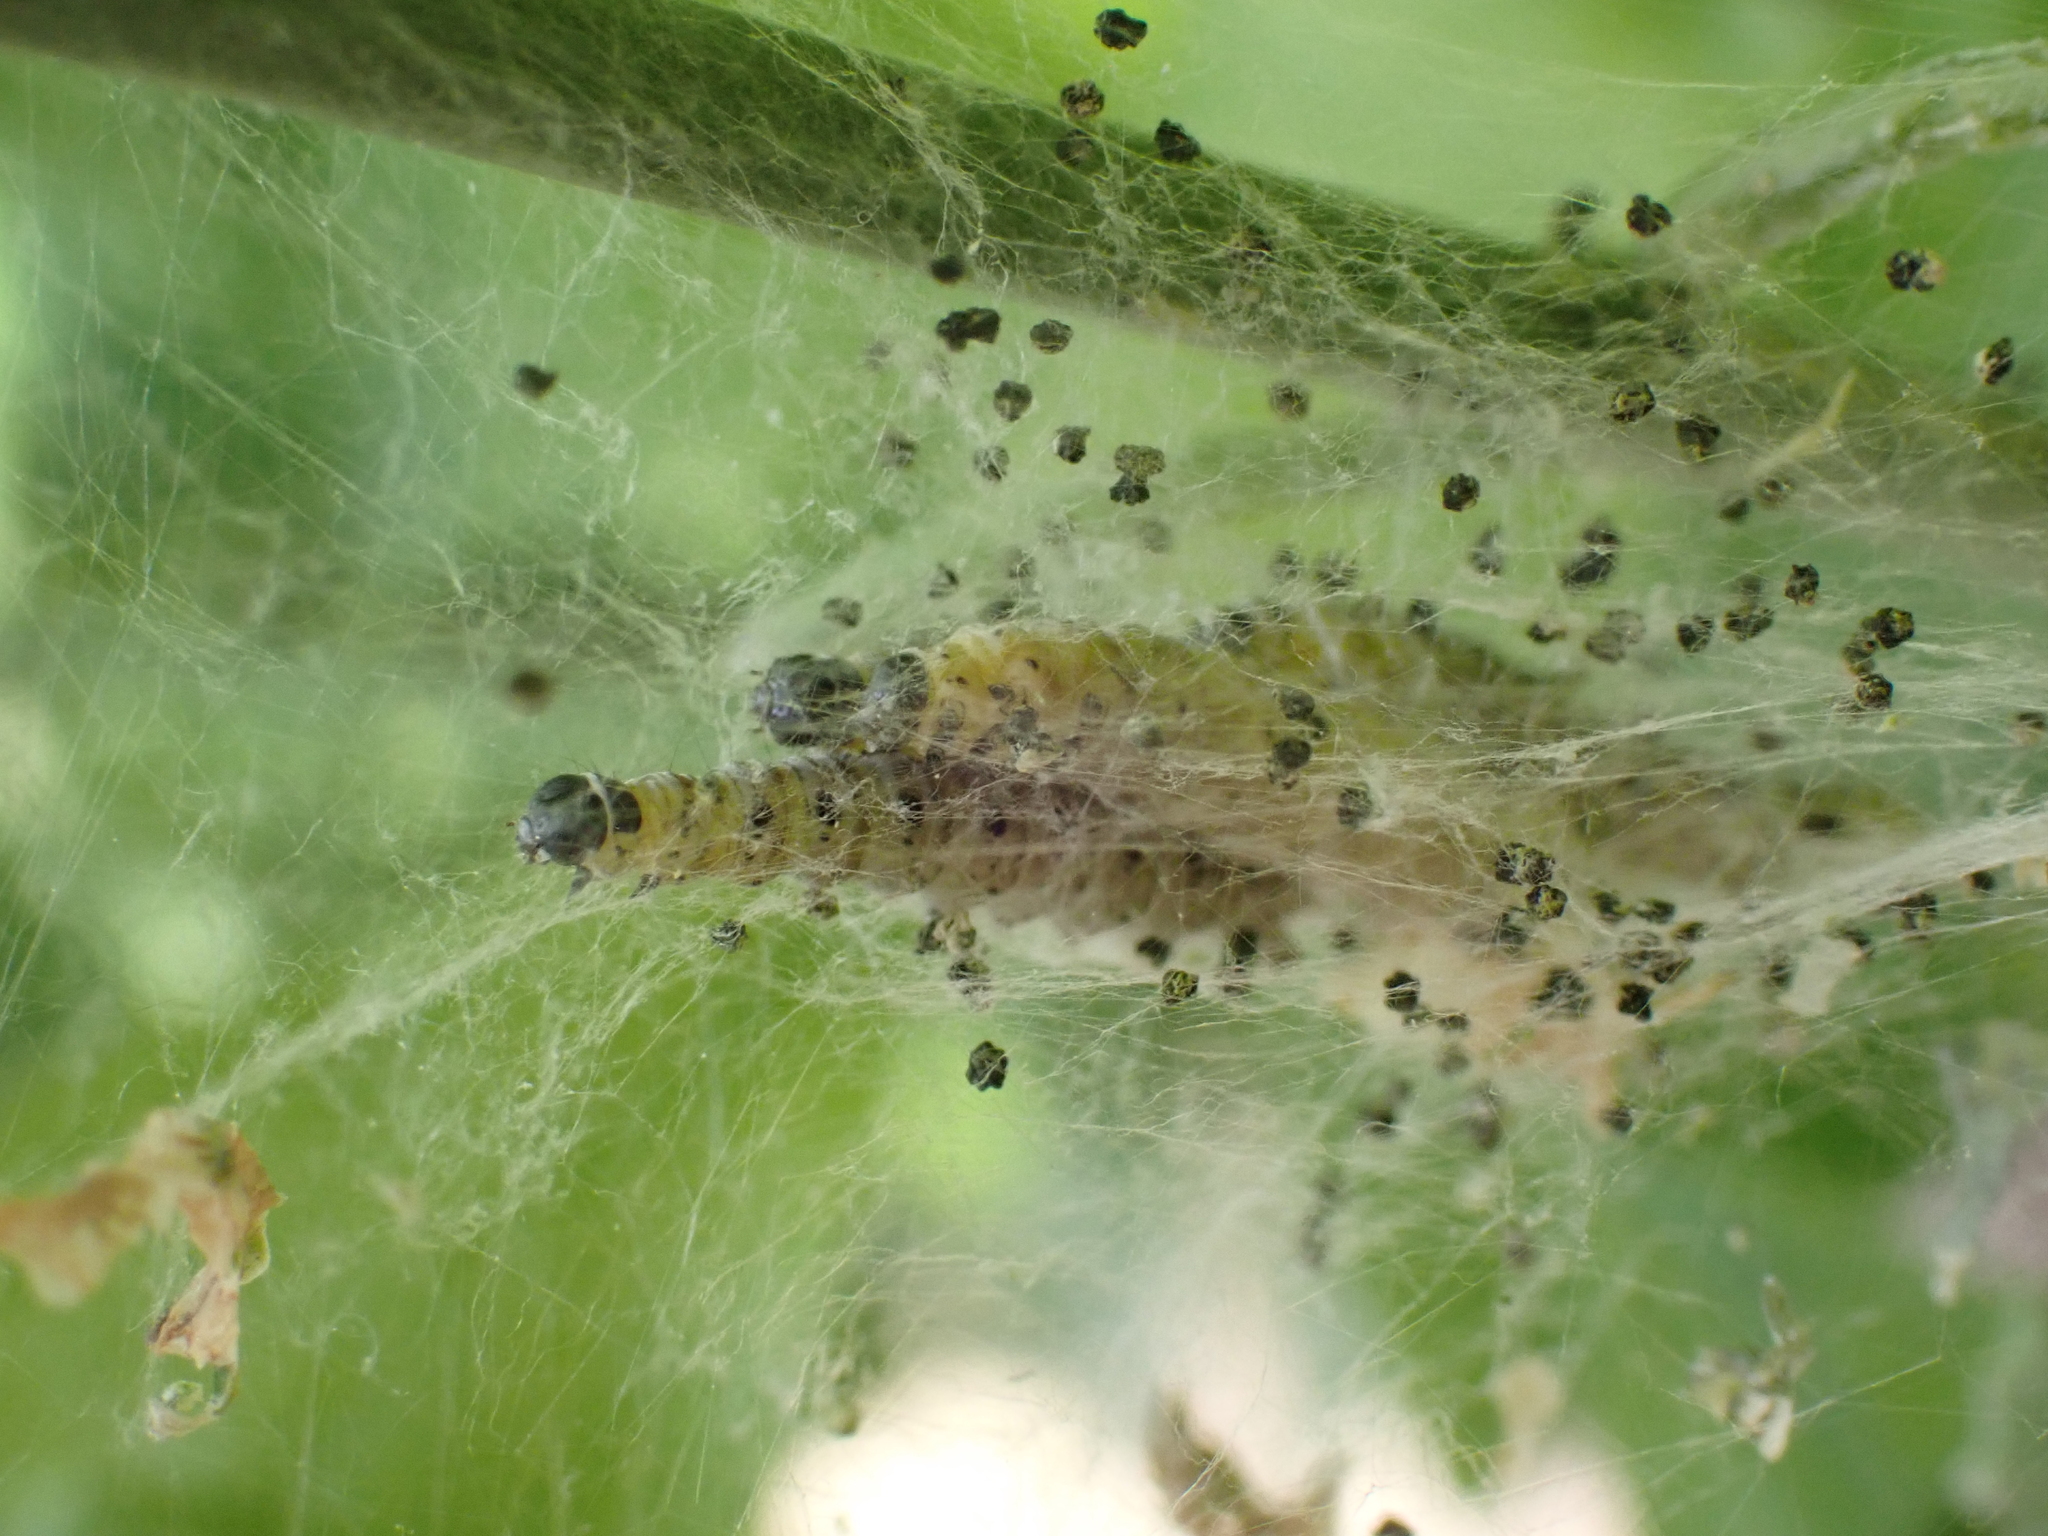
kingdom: Animalia
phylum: Arthropoda
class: Insecta
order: Lepidoptera
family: Yponomeutidae
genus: Yponomeuta
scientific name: Yponomeuta cagnagellus
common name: Spindle ermine
